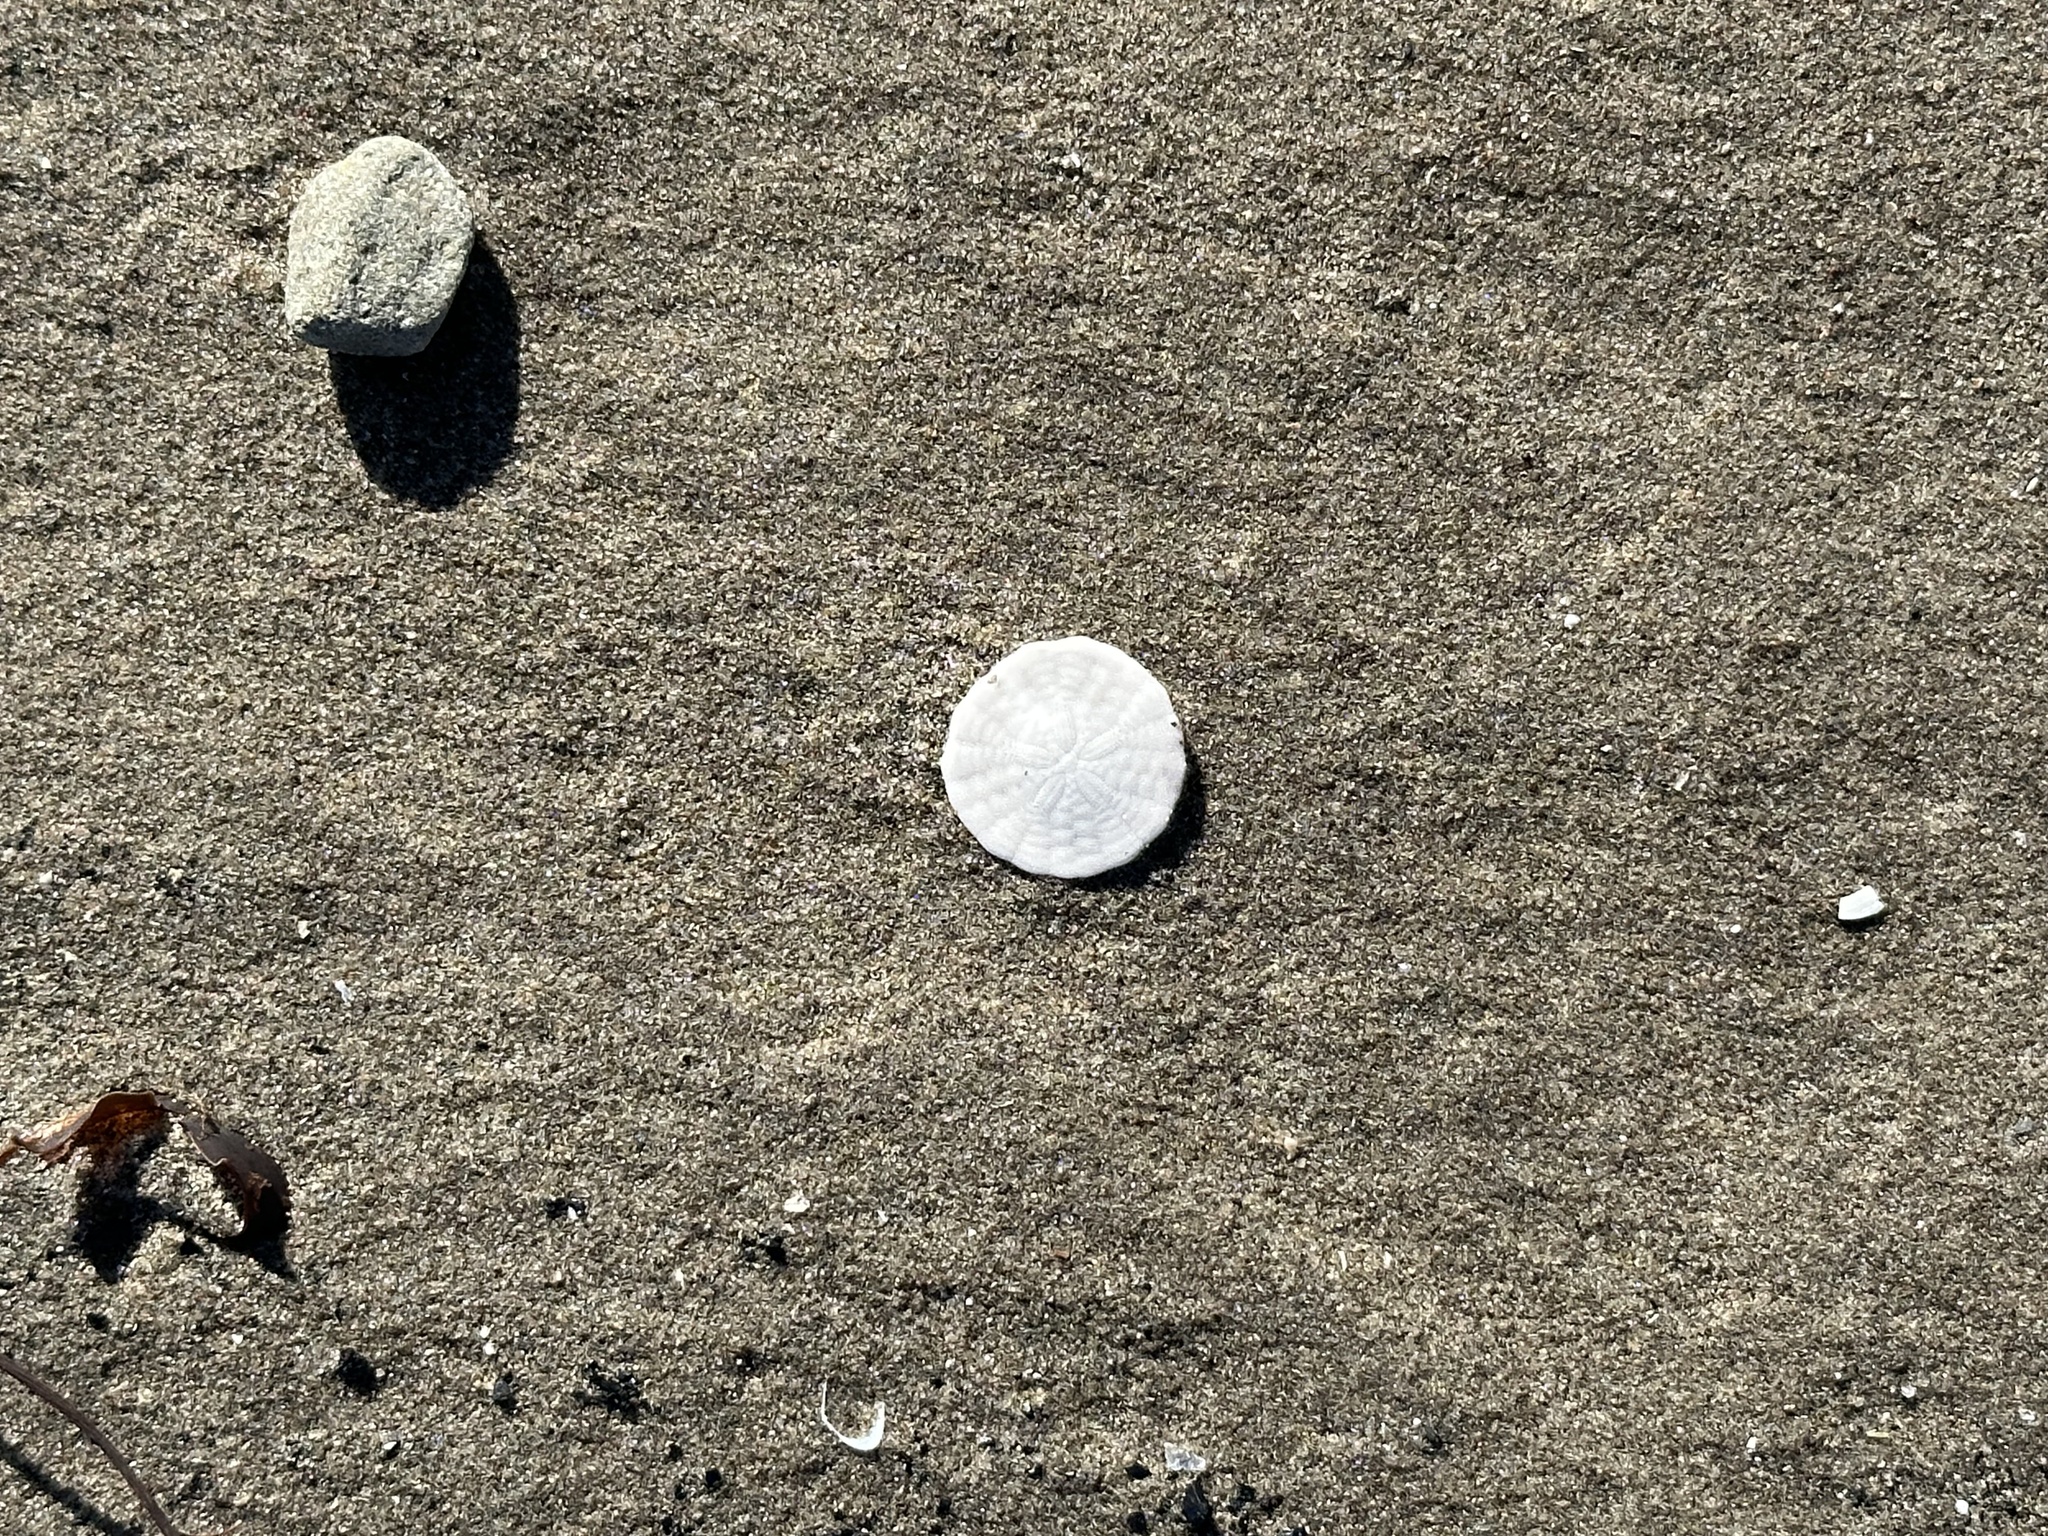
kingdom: Animalia
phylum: Echinodermata
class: Echinoidea
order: Echinolampadacea
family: Echinarachniidae
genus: Echinarachnius
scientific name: Echinarachnius parma
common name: Common sand dollar
